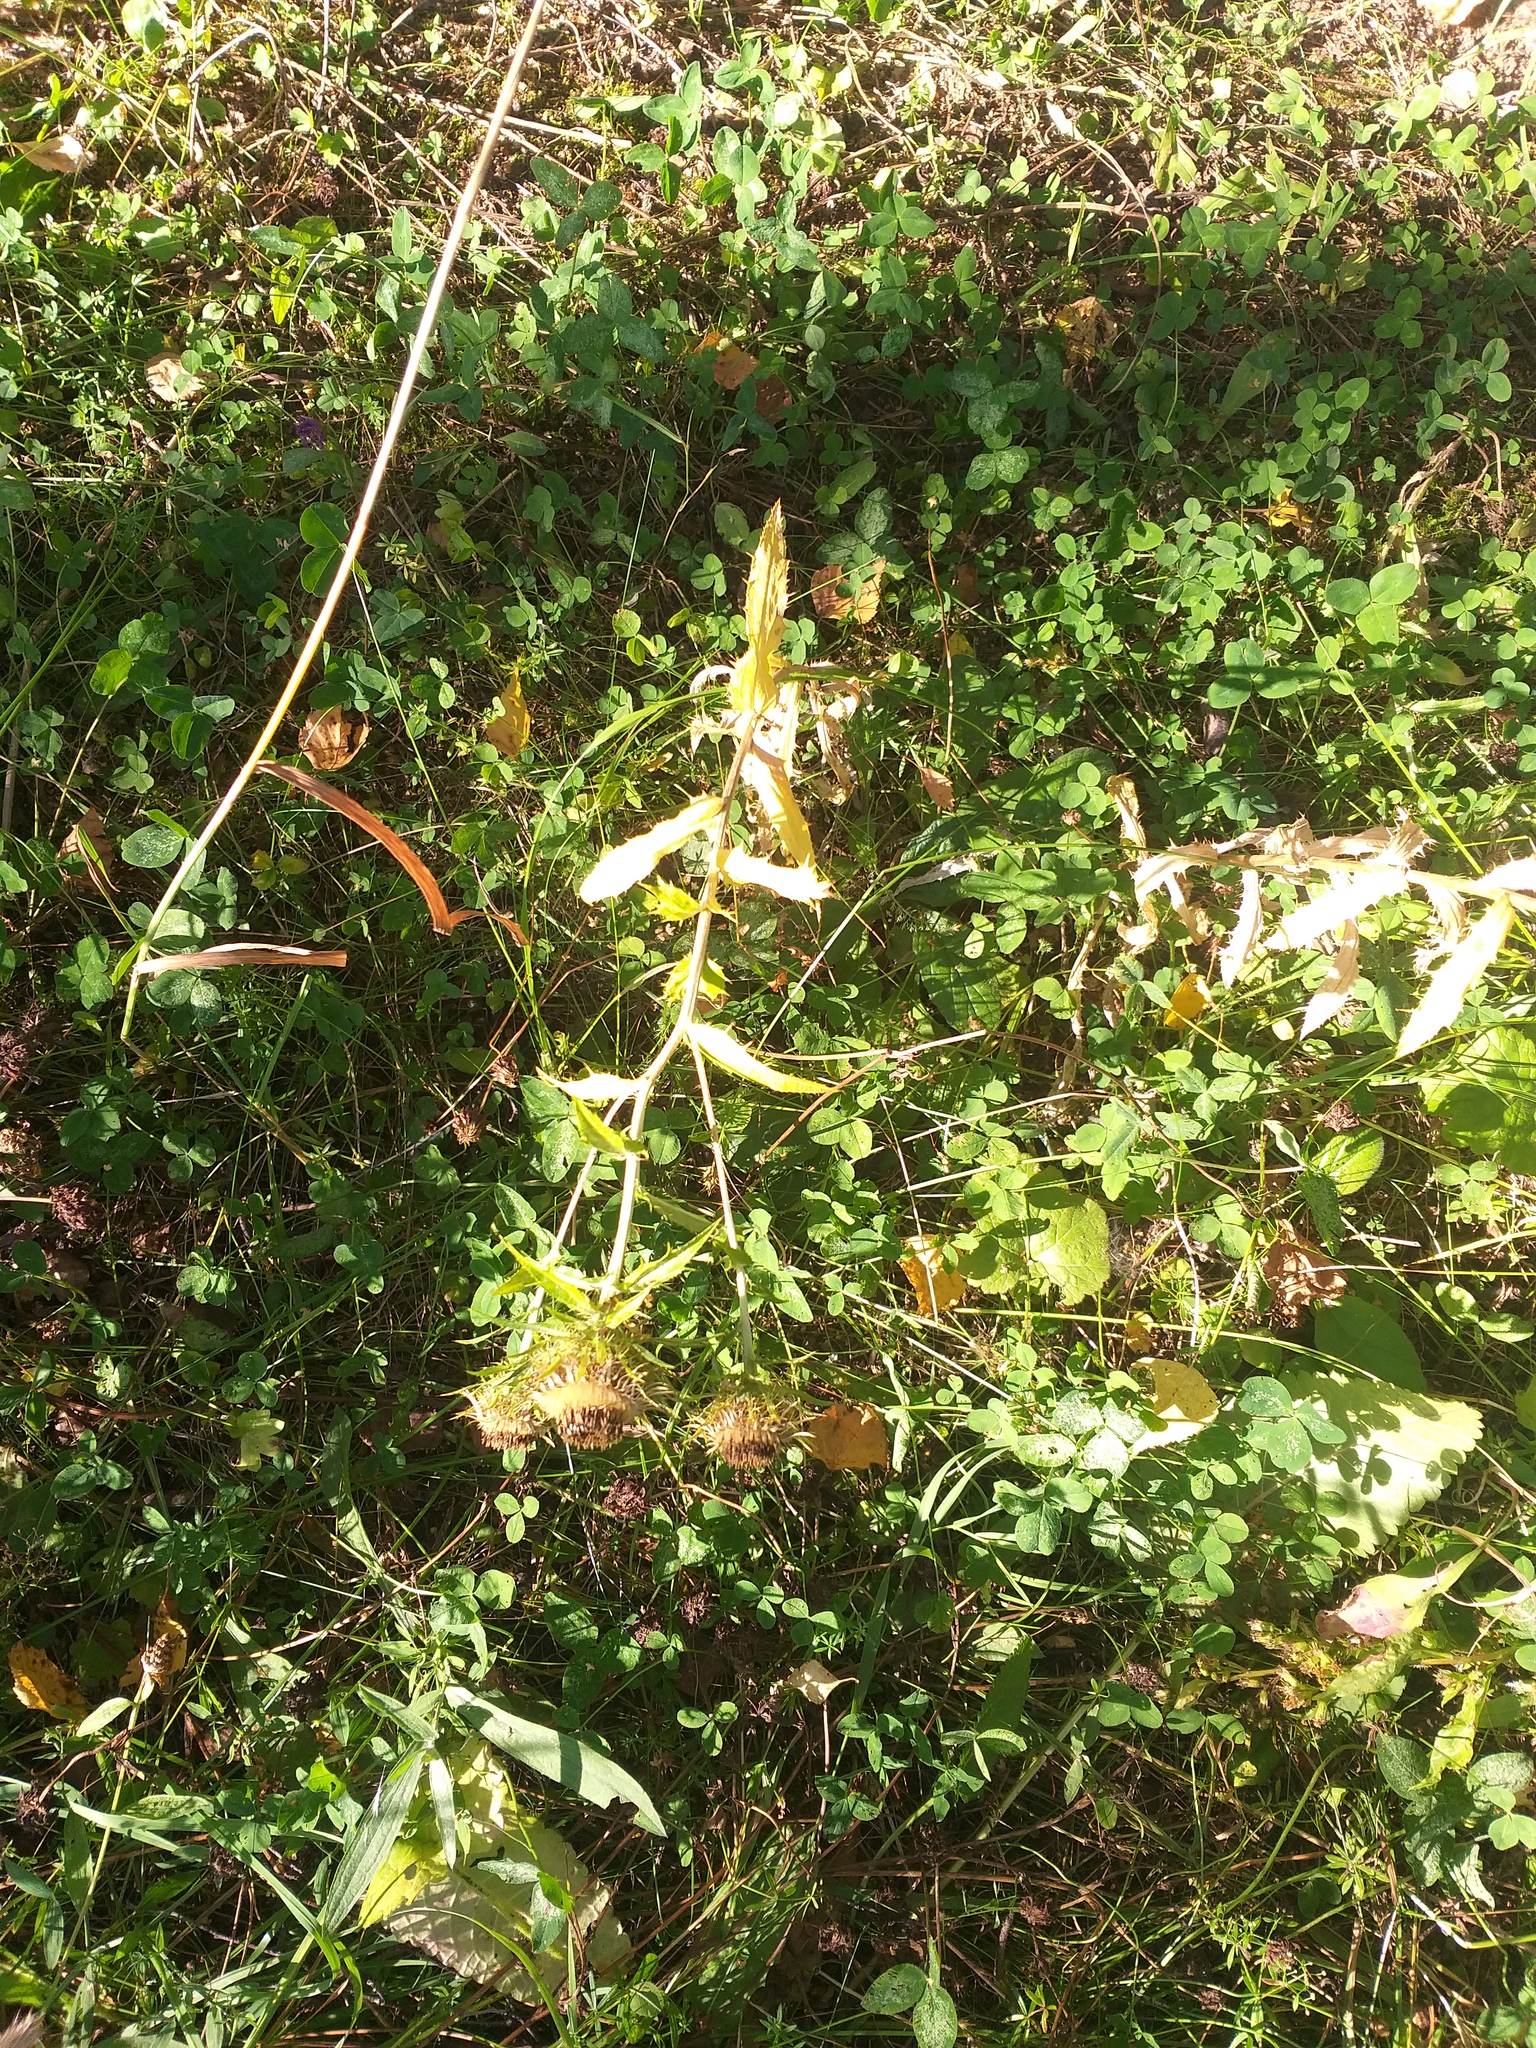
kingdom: Plantae
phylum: Tracheophyta
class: Magnoliopsida
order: Asterales
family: Asteraceae
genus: Carlina
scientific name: Carlina biebersteinii
